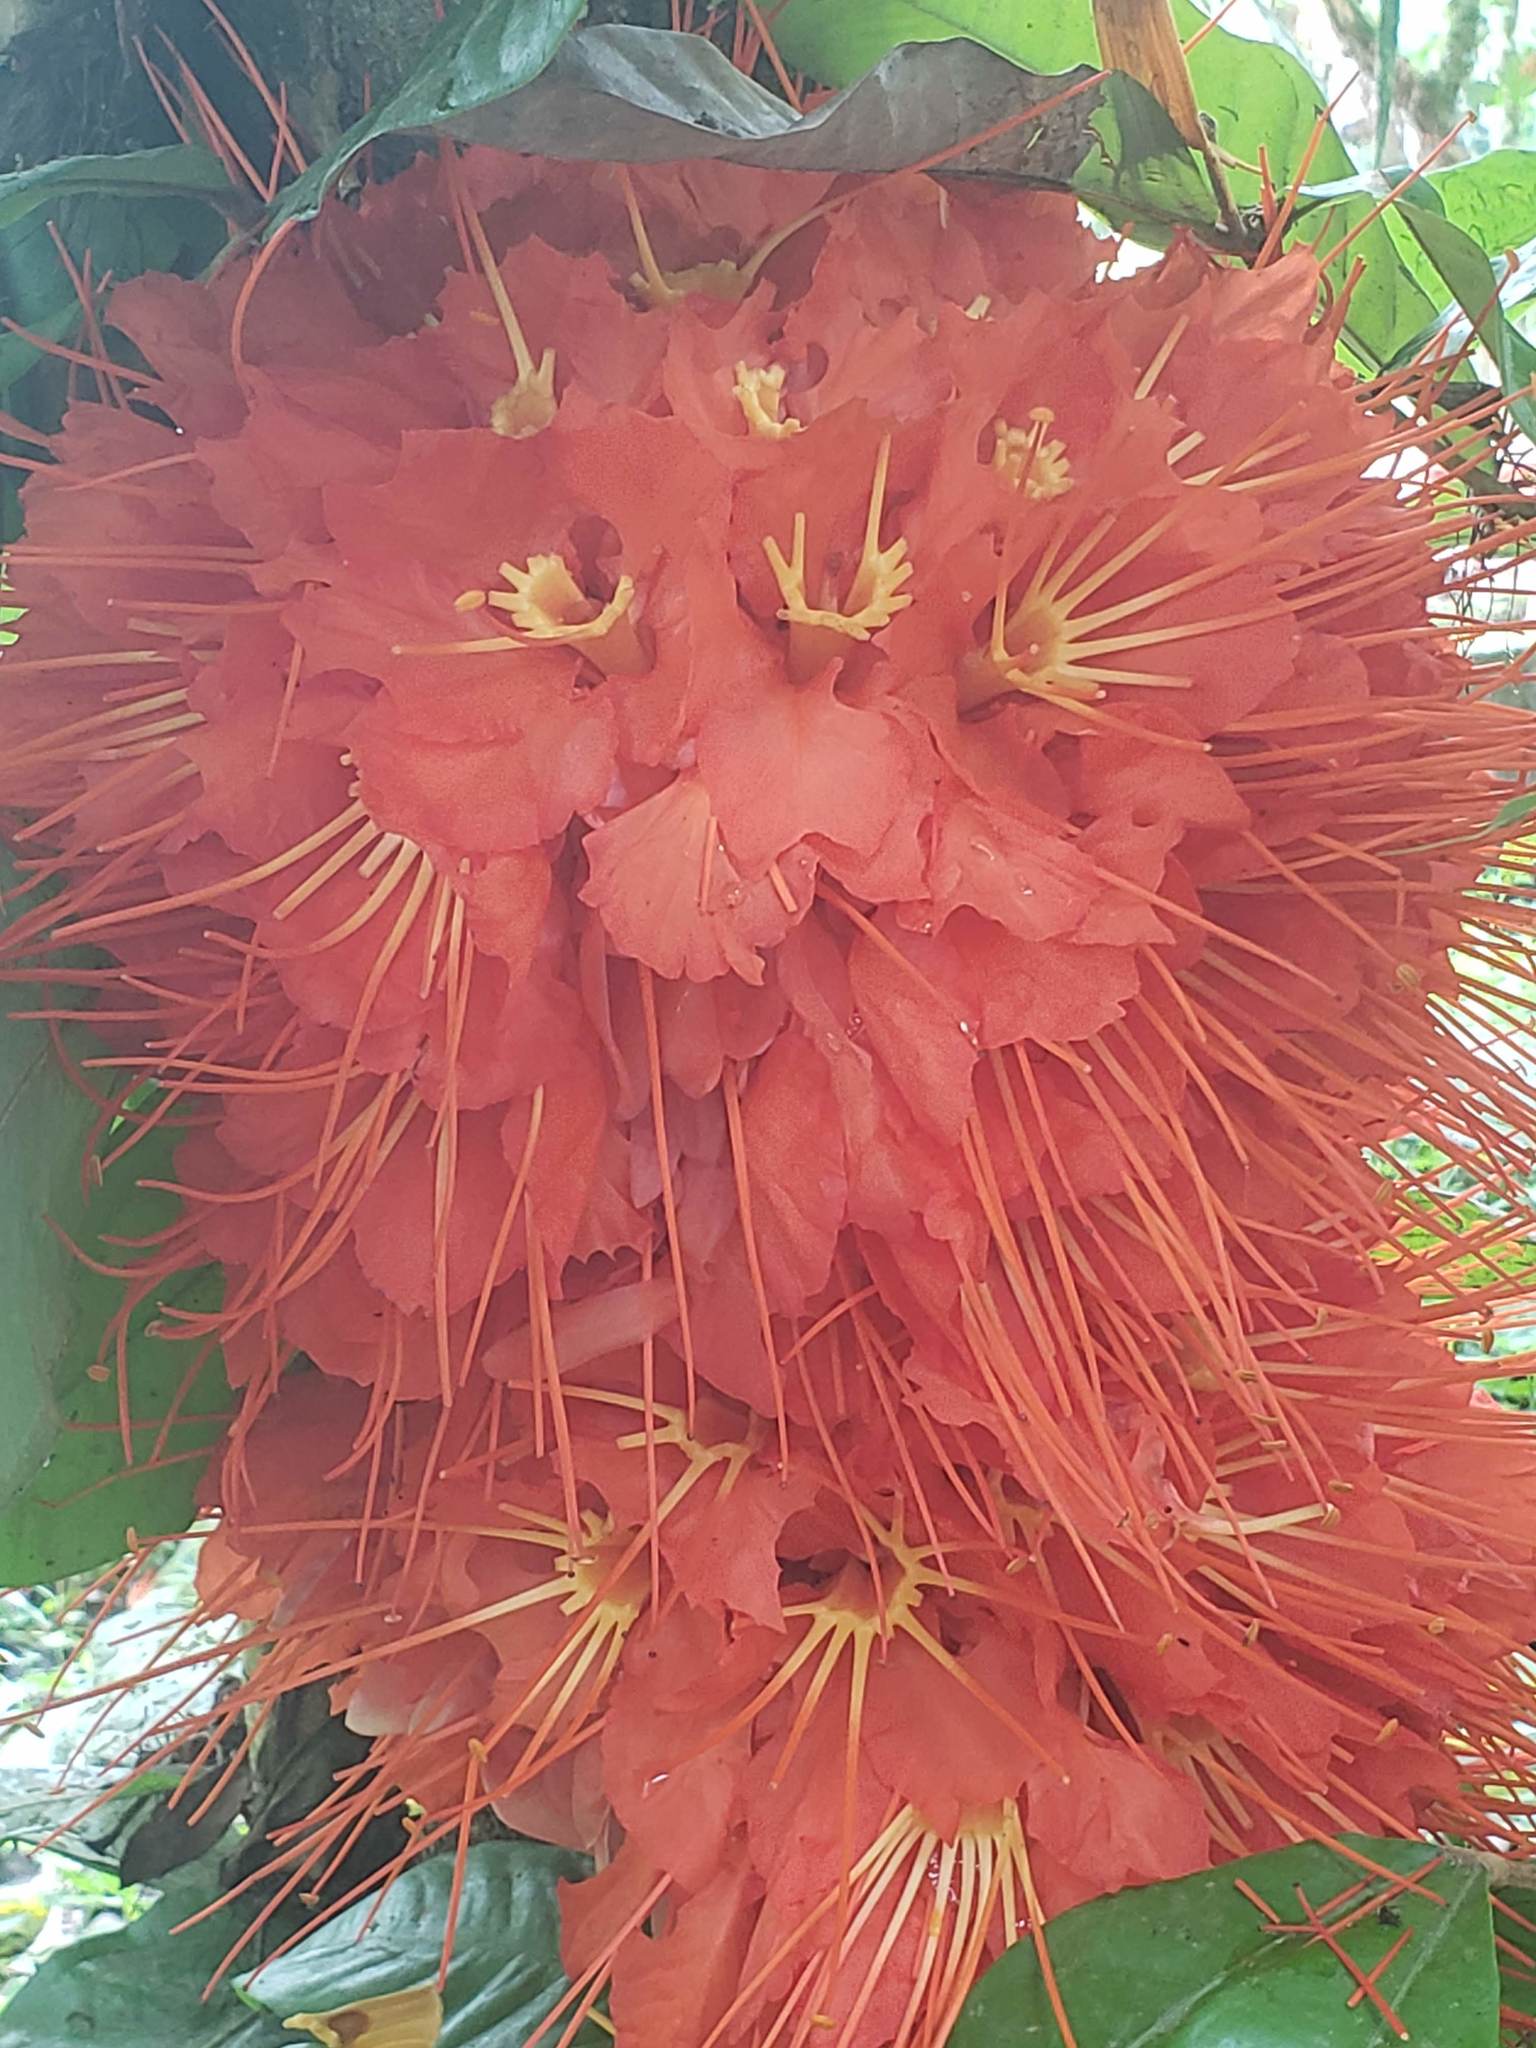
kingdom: Plantae
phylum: Tracheophyta
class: Magnoliopsida
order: Fabales
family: Fabaceae
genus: Brownea
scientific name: Brownea macrophylla
